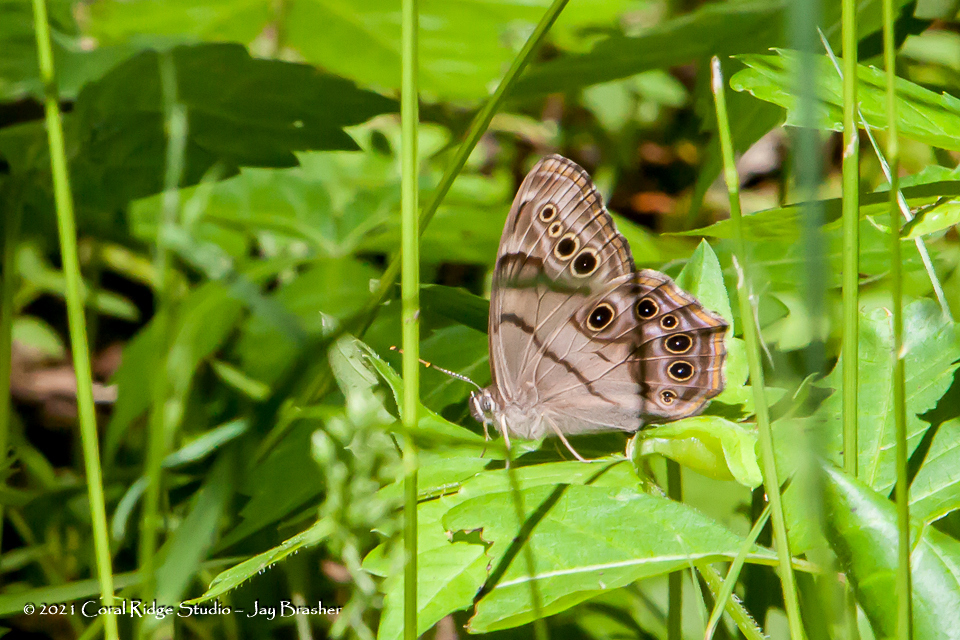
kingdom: Animalia
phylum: Arthropoda
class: Insecta
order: Lepidoptera
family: Nymphalidae
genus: Lethe
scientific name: Lethe anthedon
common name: Northern pearly-eye
